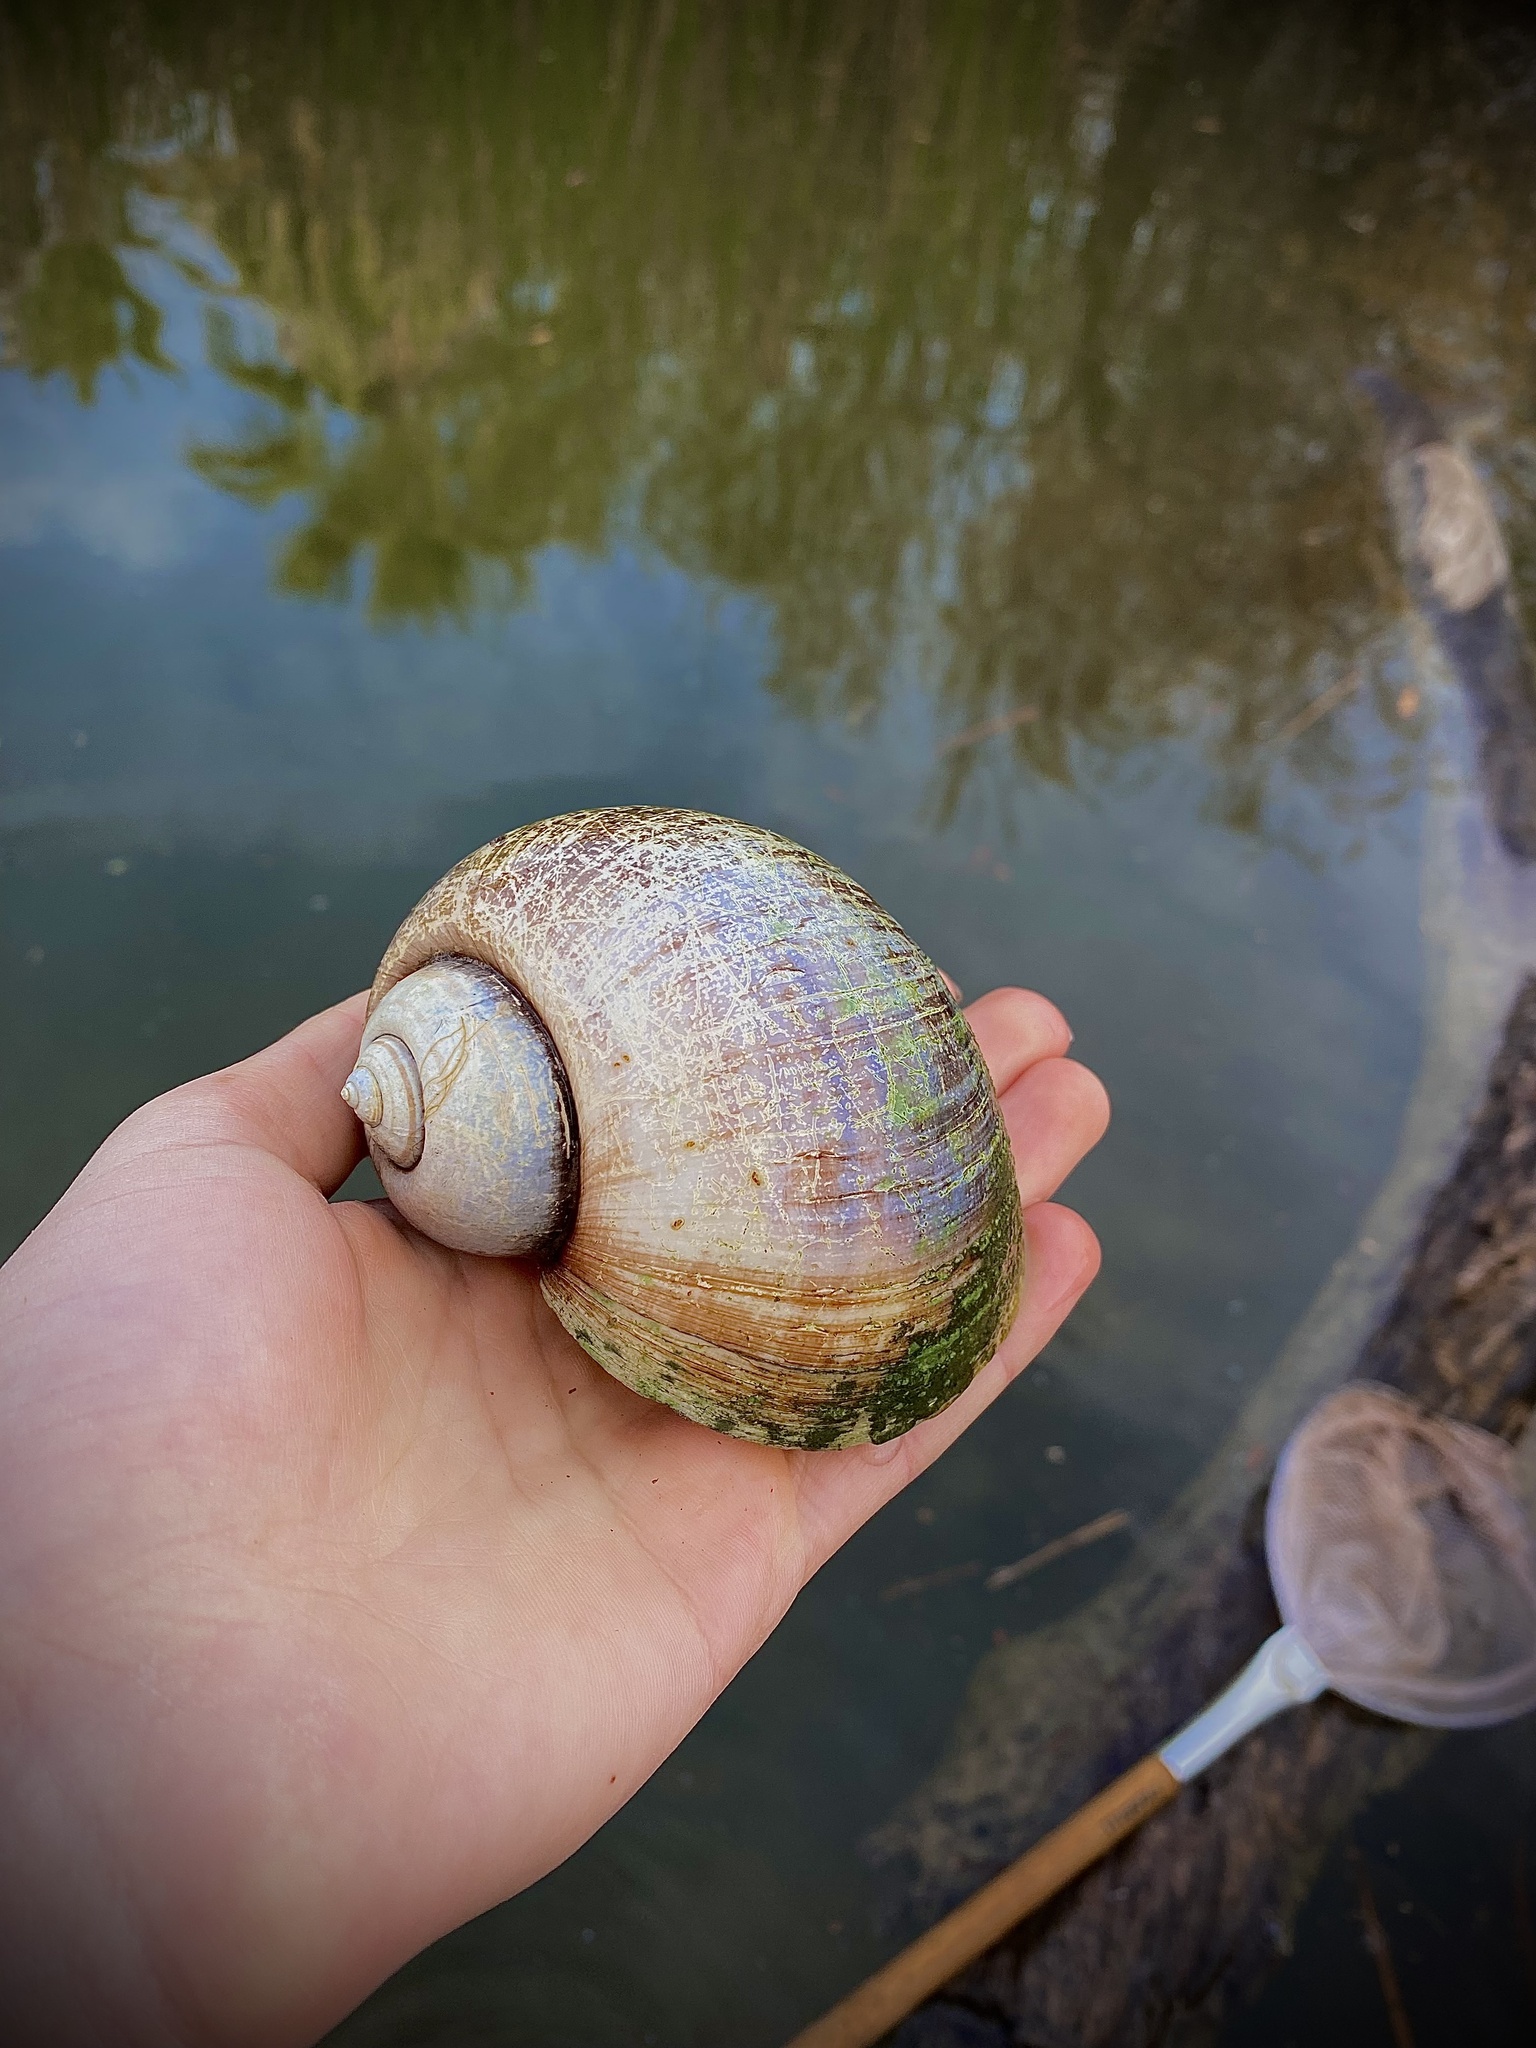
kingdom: Animalia
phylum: Mollusca
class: Gastropoda
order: Architaenioglossa
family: Ampullariidae
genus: Pomacea
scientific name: Pomacea maculata
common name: Giant applesnail
